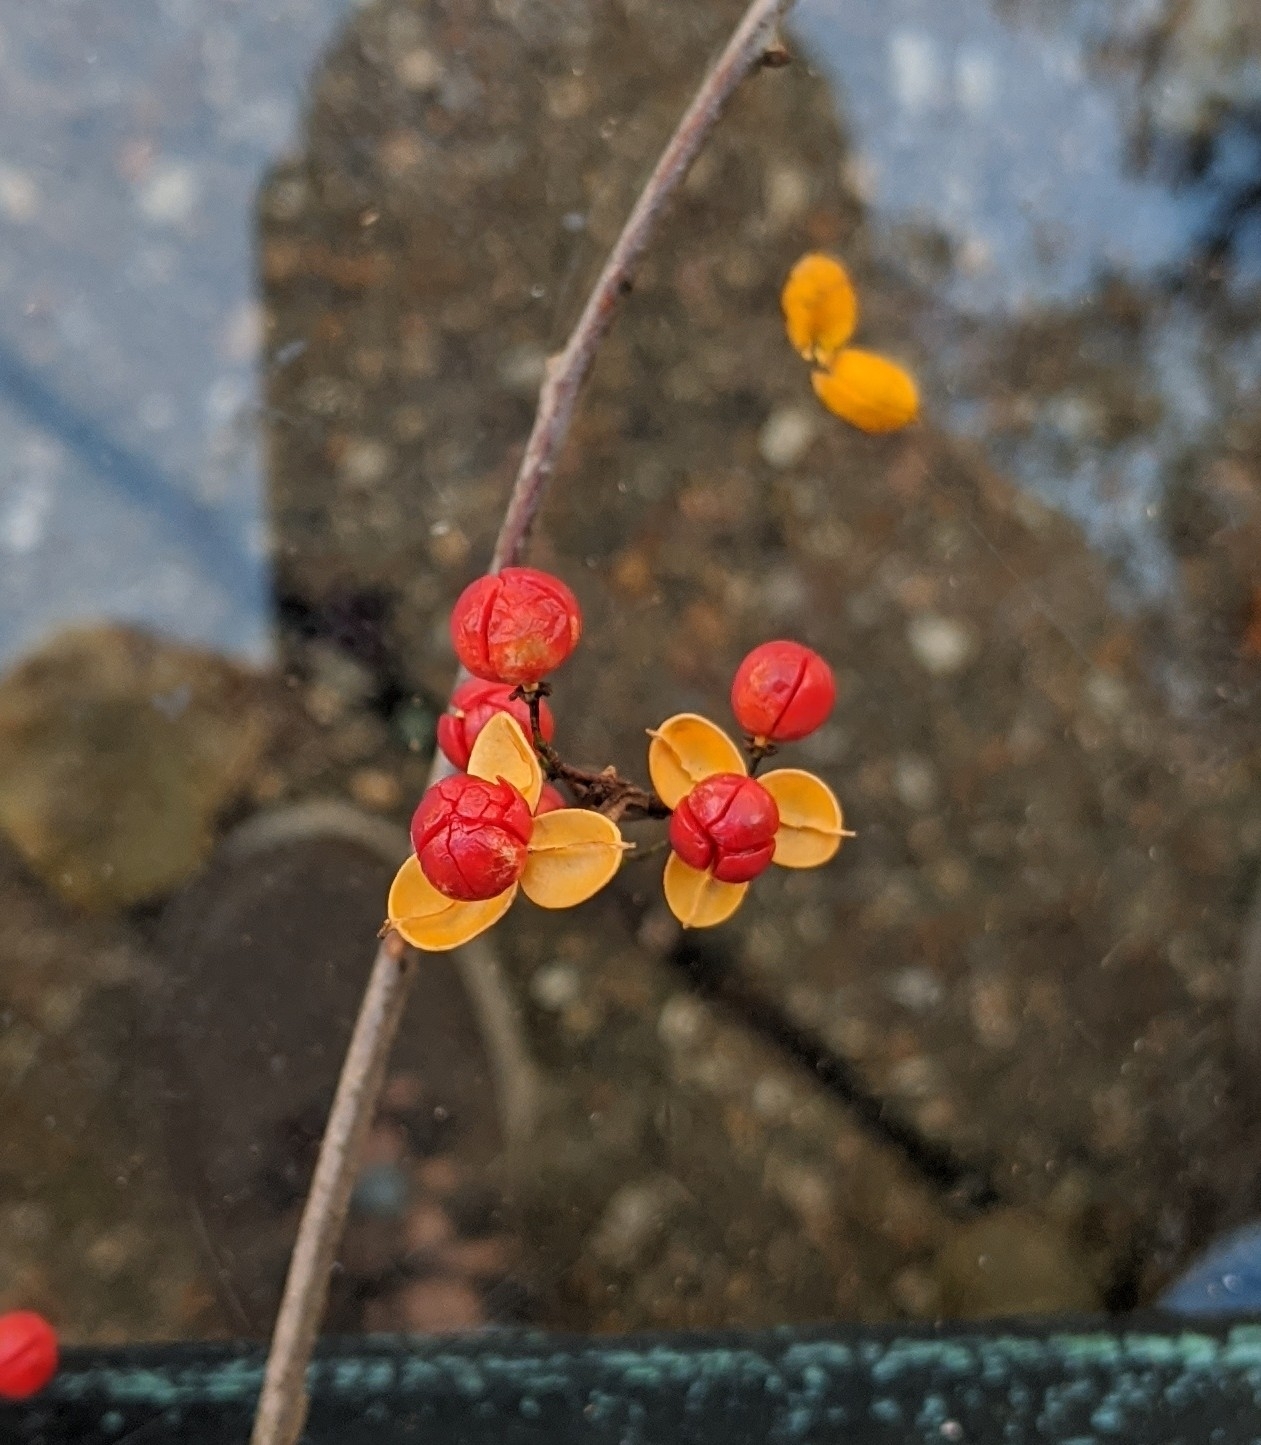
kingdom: Plantae
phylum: Tracheophyta
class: Magnoliopsida
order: Celastrales
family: Celastraceae
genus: Celastrus
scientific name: Celastrus orbiculatus
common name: Oriental bittersweet
